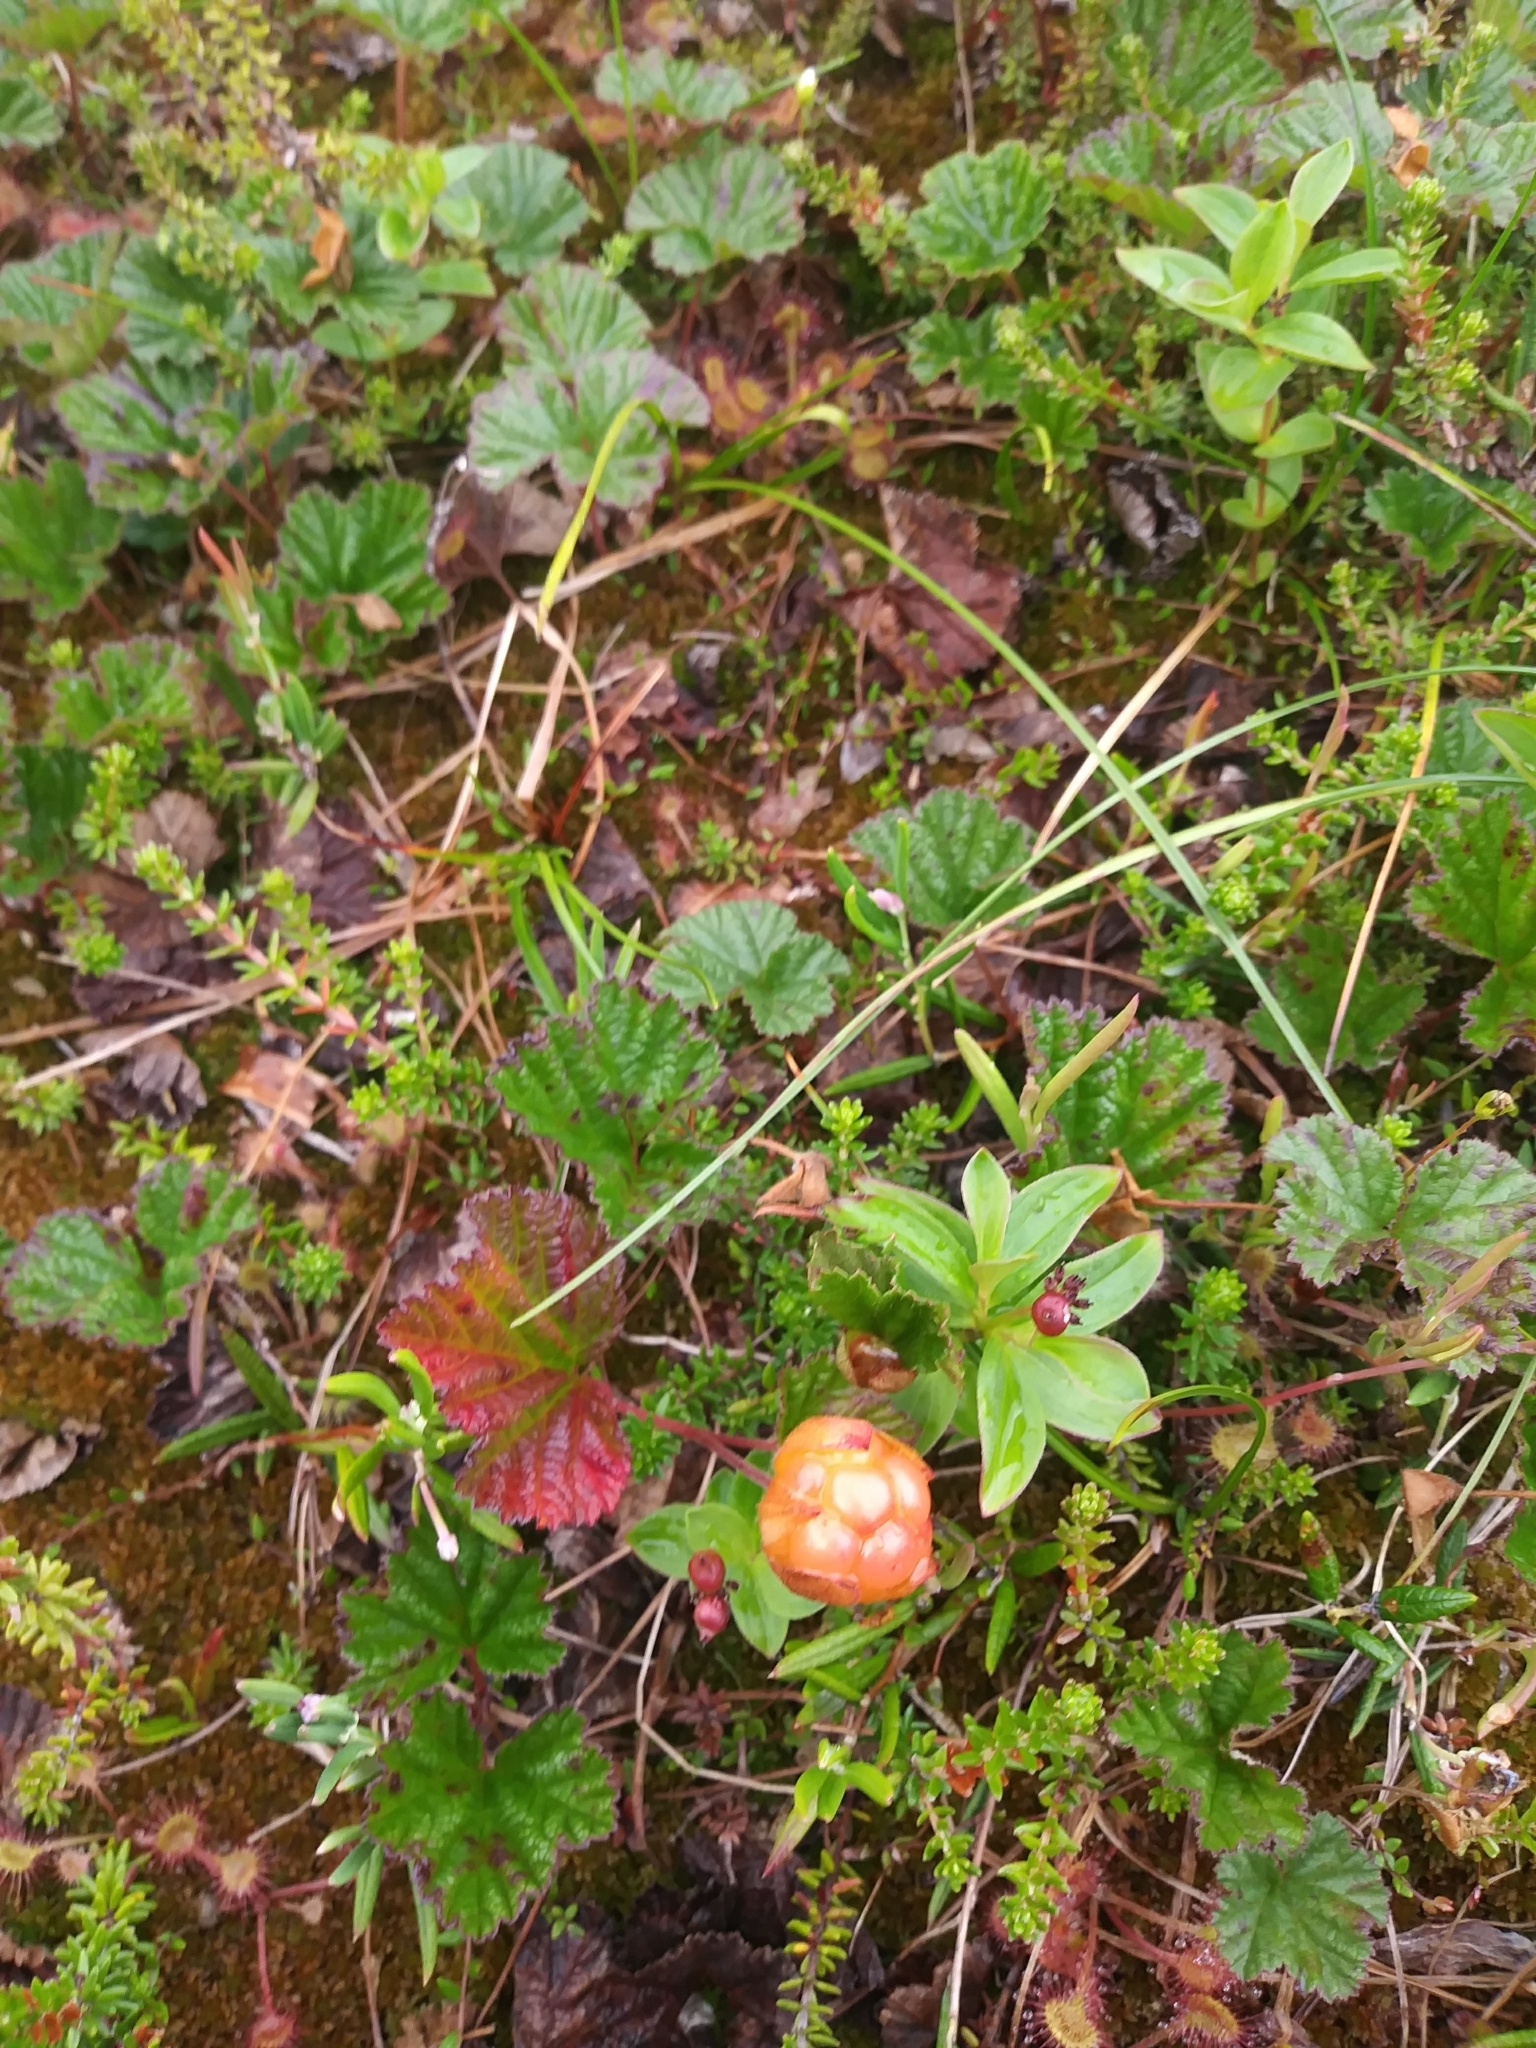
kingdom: Plantae
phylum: Tracheophyta
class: Magnoliopsida
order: Rosales
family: Rosaceae
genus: Rubus
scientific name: Rubus chamaemorus
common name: Cloudberry
